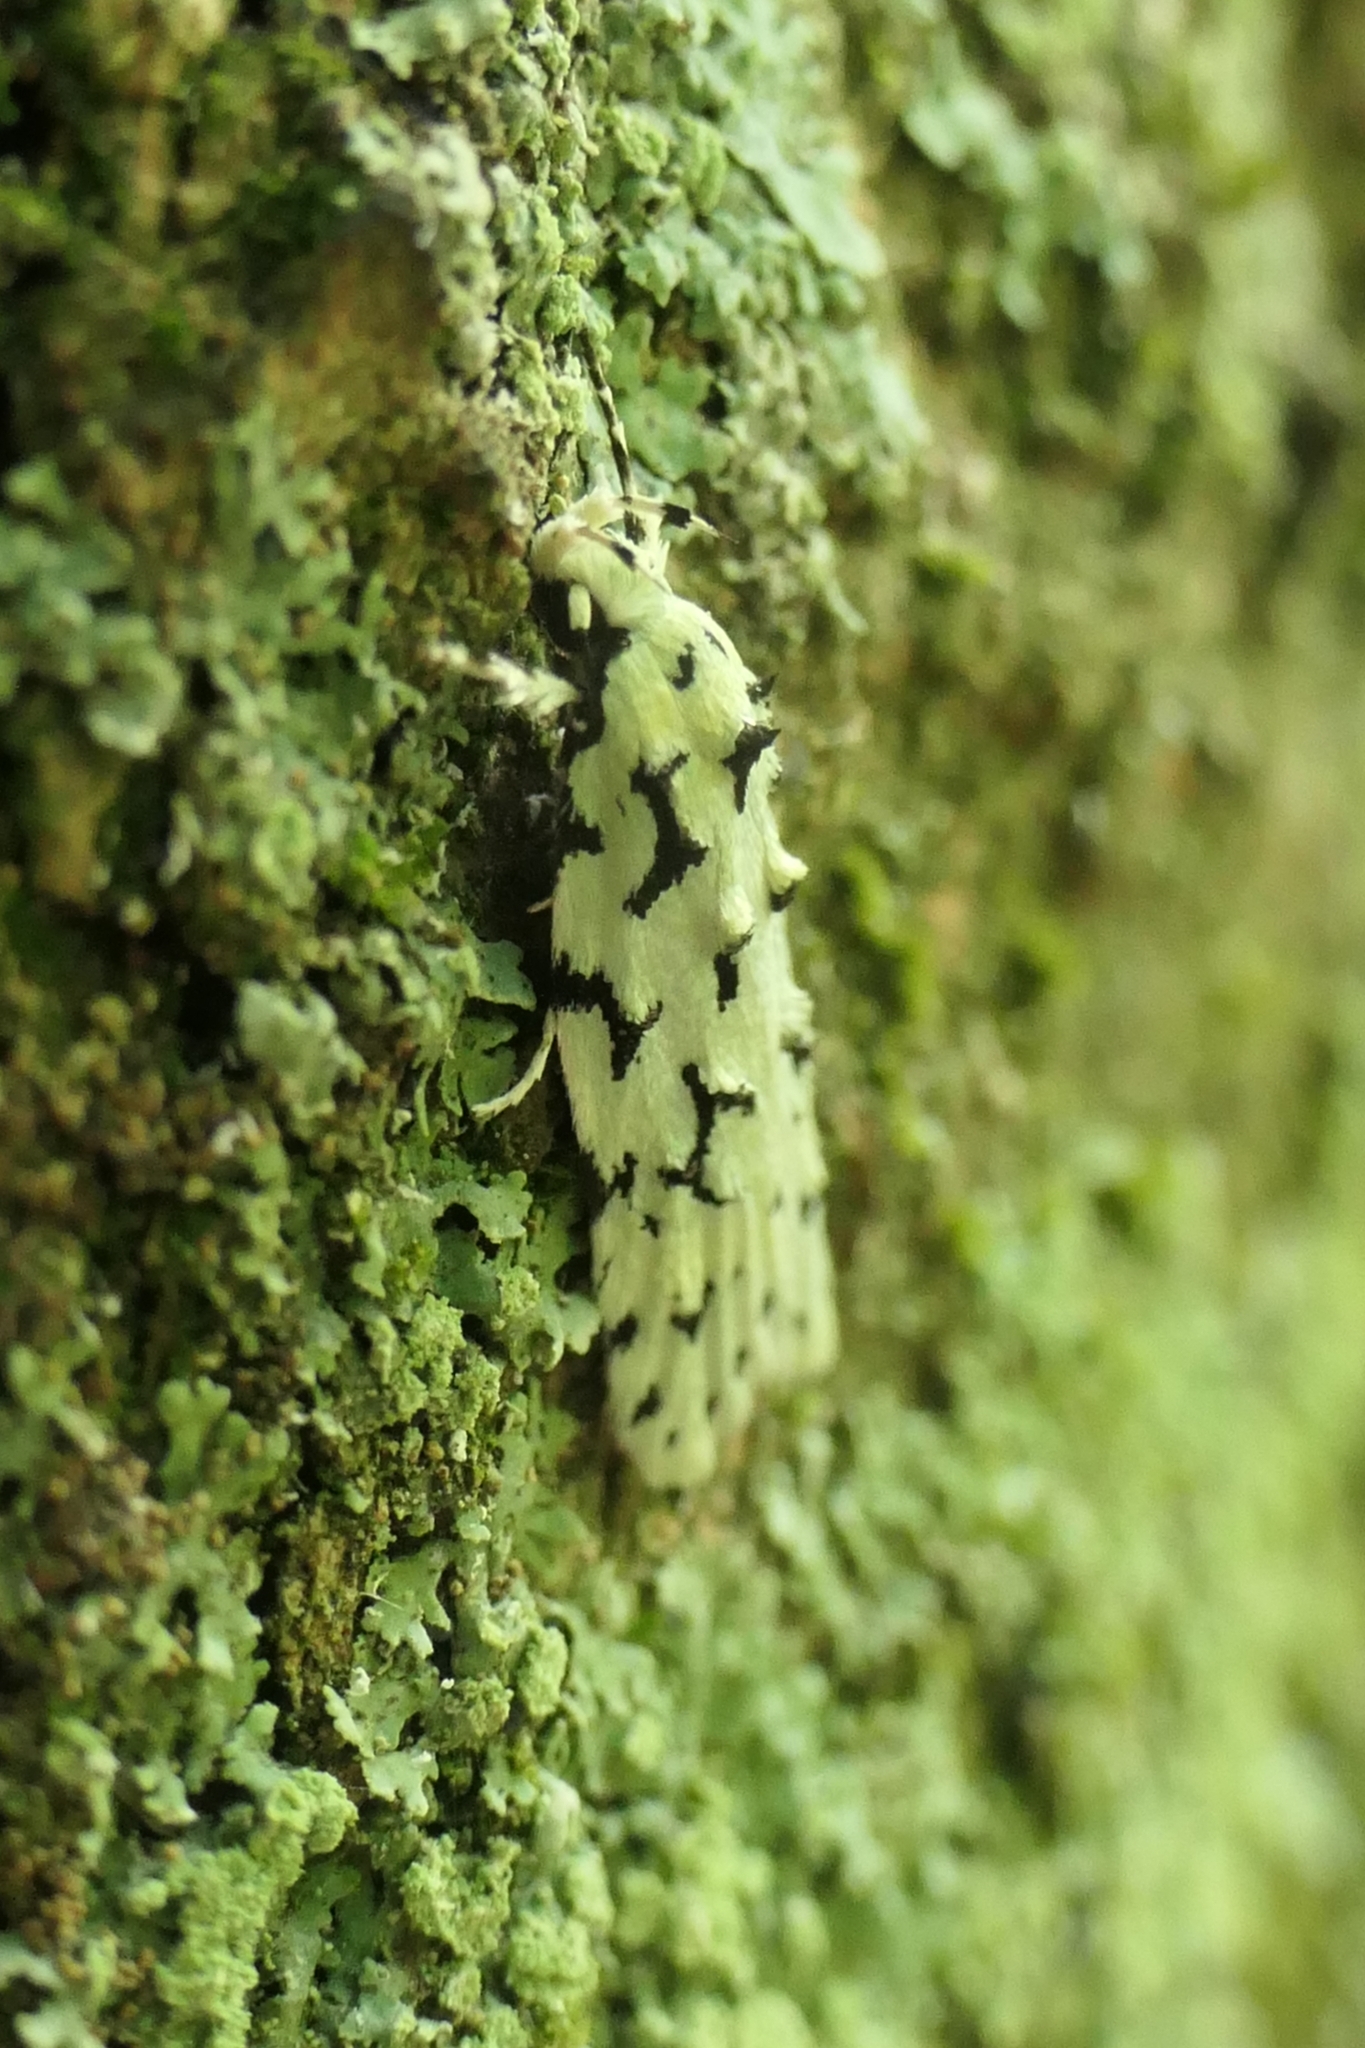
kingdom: Animalia
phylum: Arthropoda
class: Insecta
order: Lepidoptera
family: Oecophoridae
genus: Izatha
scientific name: Izatha huttoni
